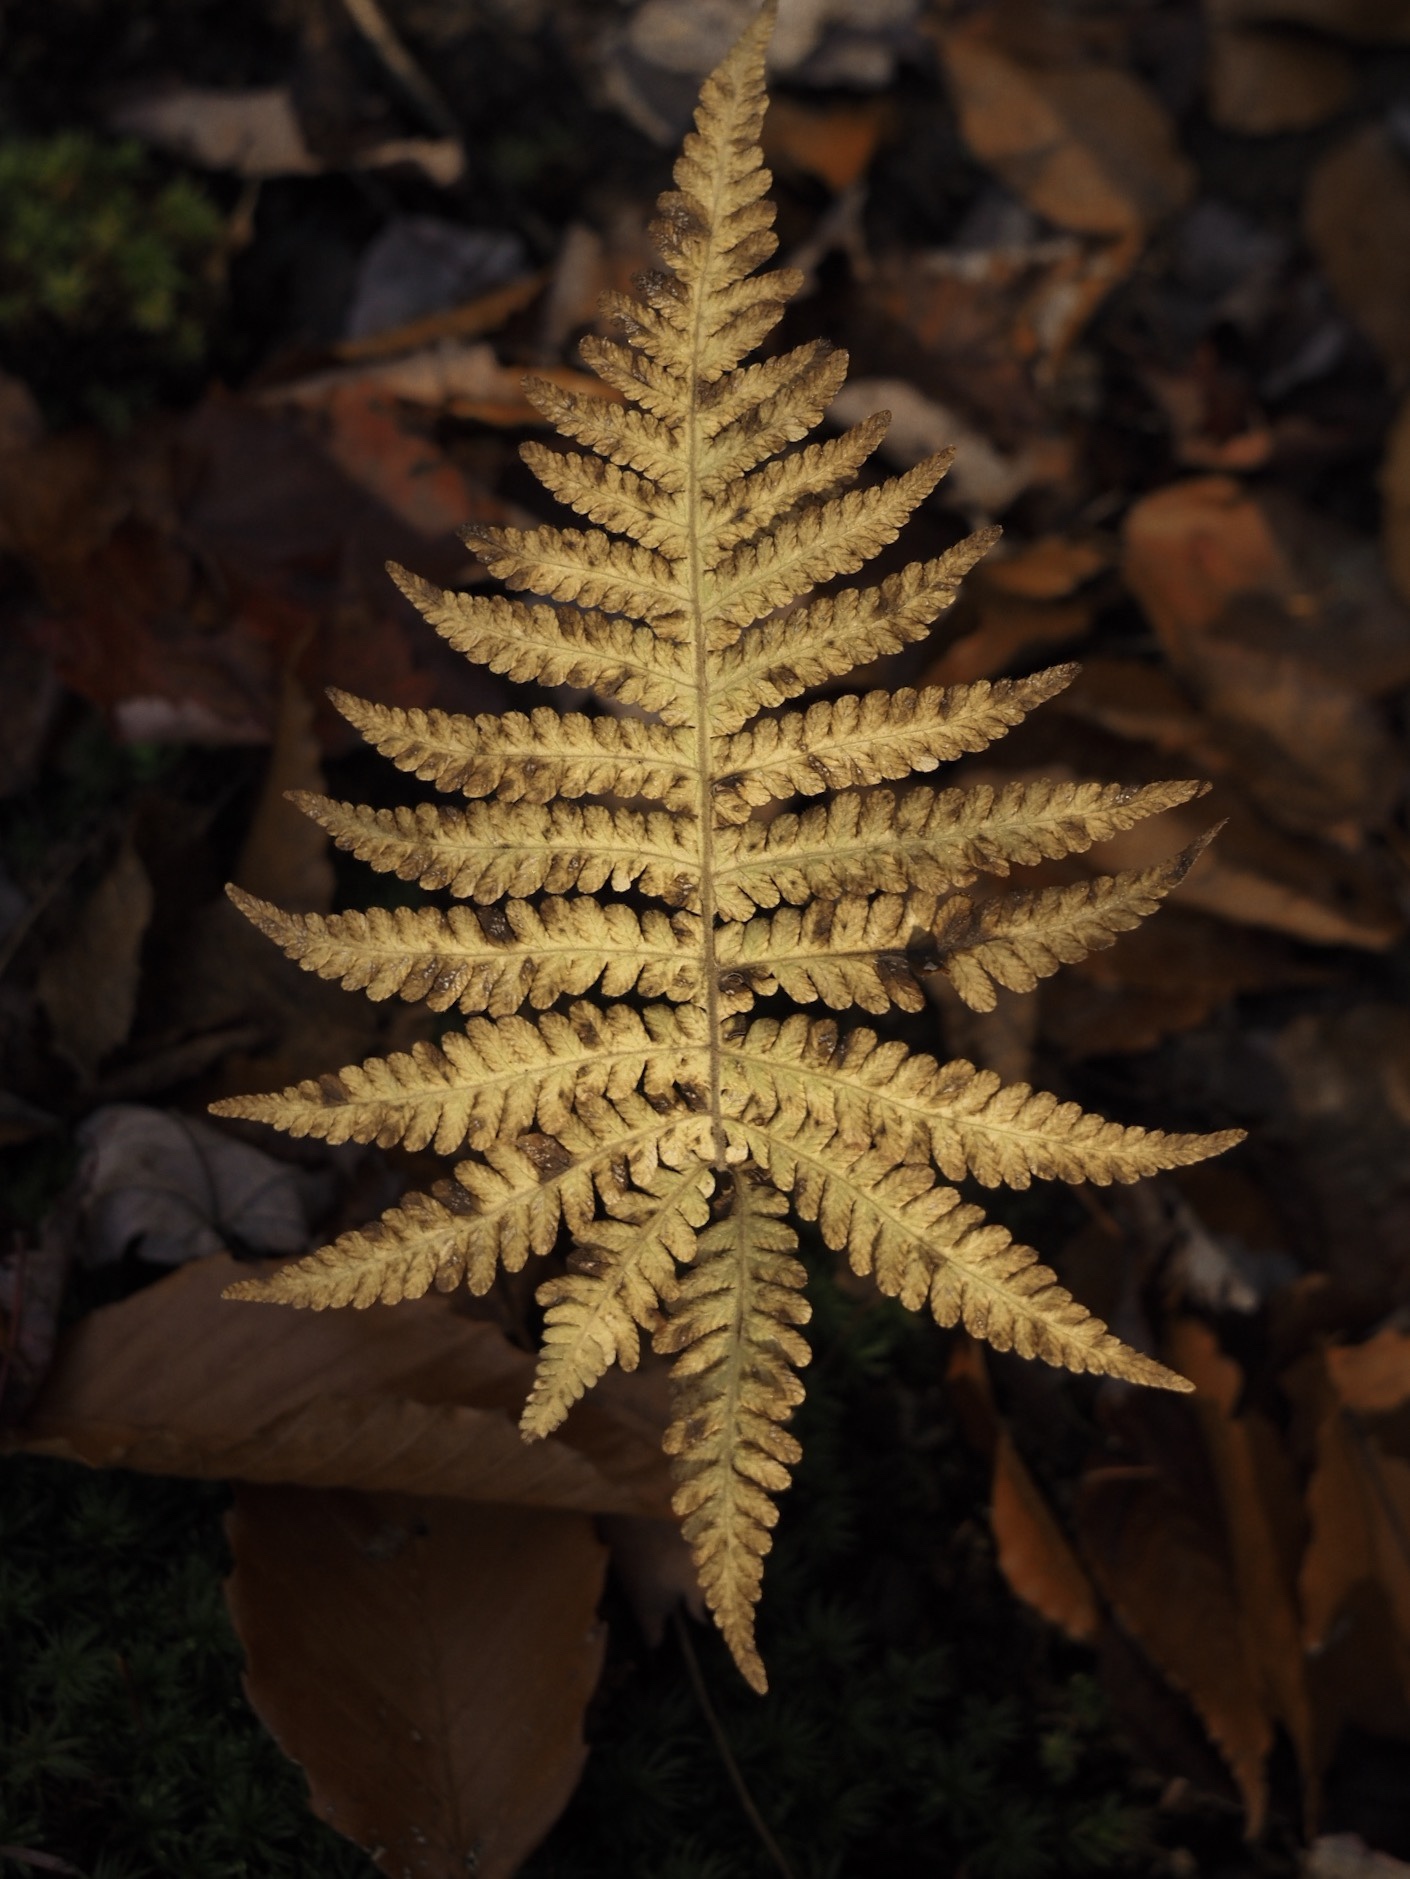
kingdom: Plantae
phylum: Tracheophyta
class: Polypodiopsida
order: Polypodiales
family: Thelypteridaceae
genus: Phegopteris
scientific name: Phegopteris connectilis
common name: Beech fern
